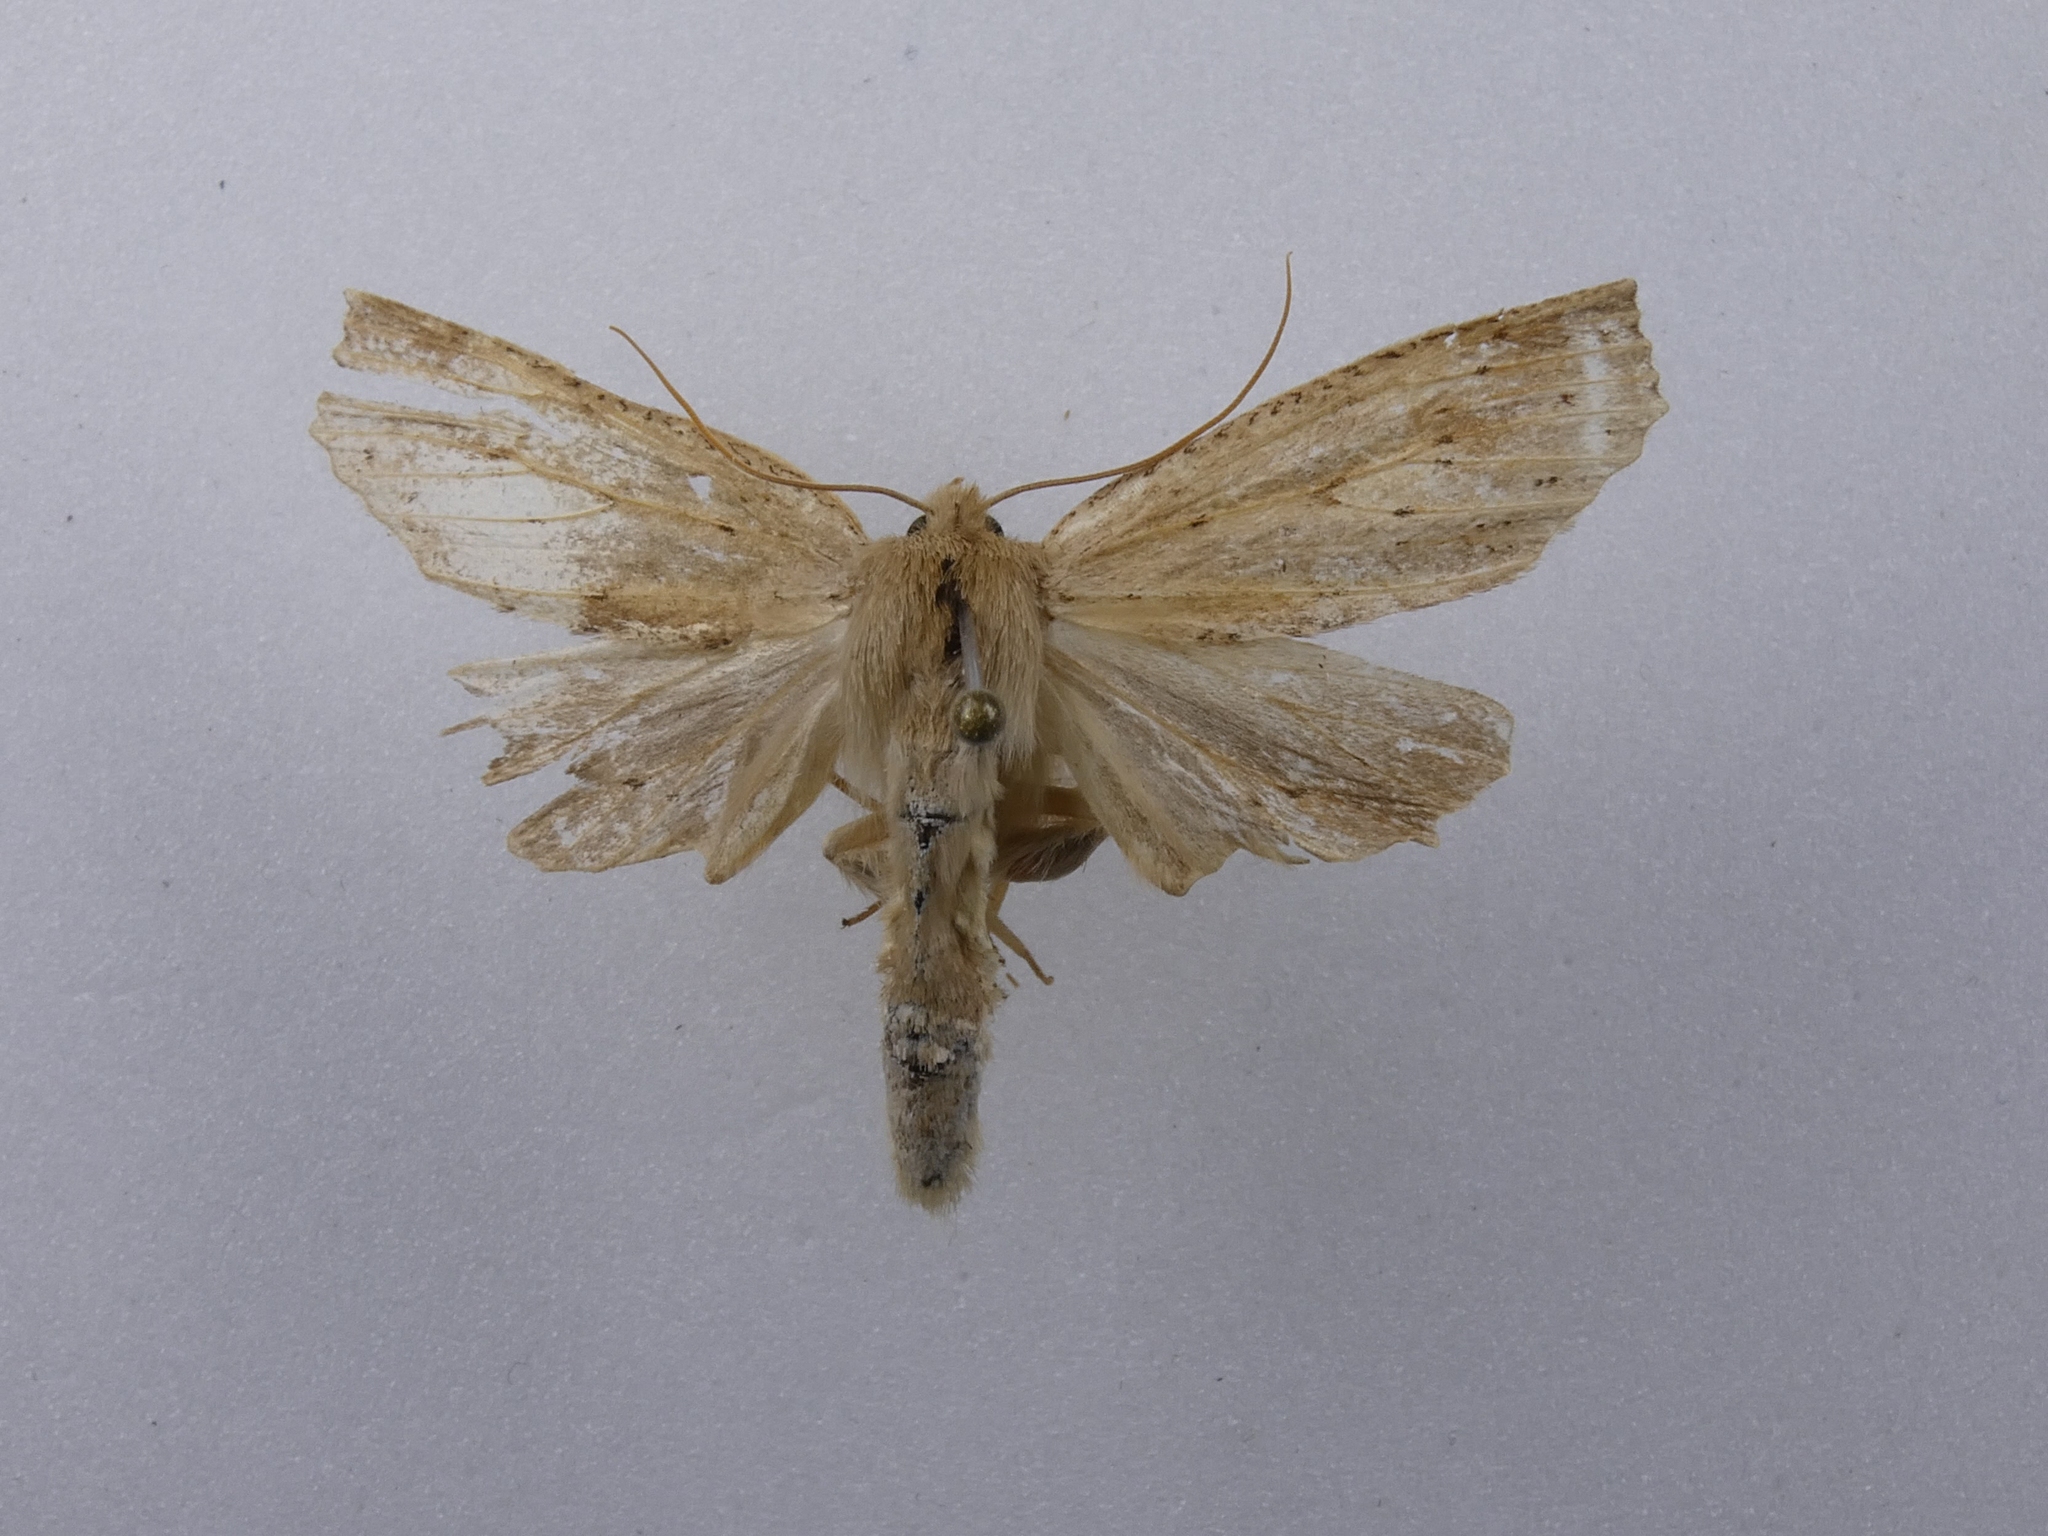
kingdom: Animalia
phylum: Arthropoda
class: Insecta
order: Lepidoptera
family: Geometridae
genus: Declana
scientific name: Declana leptomera
